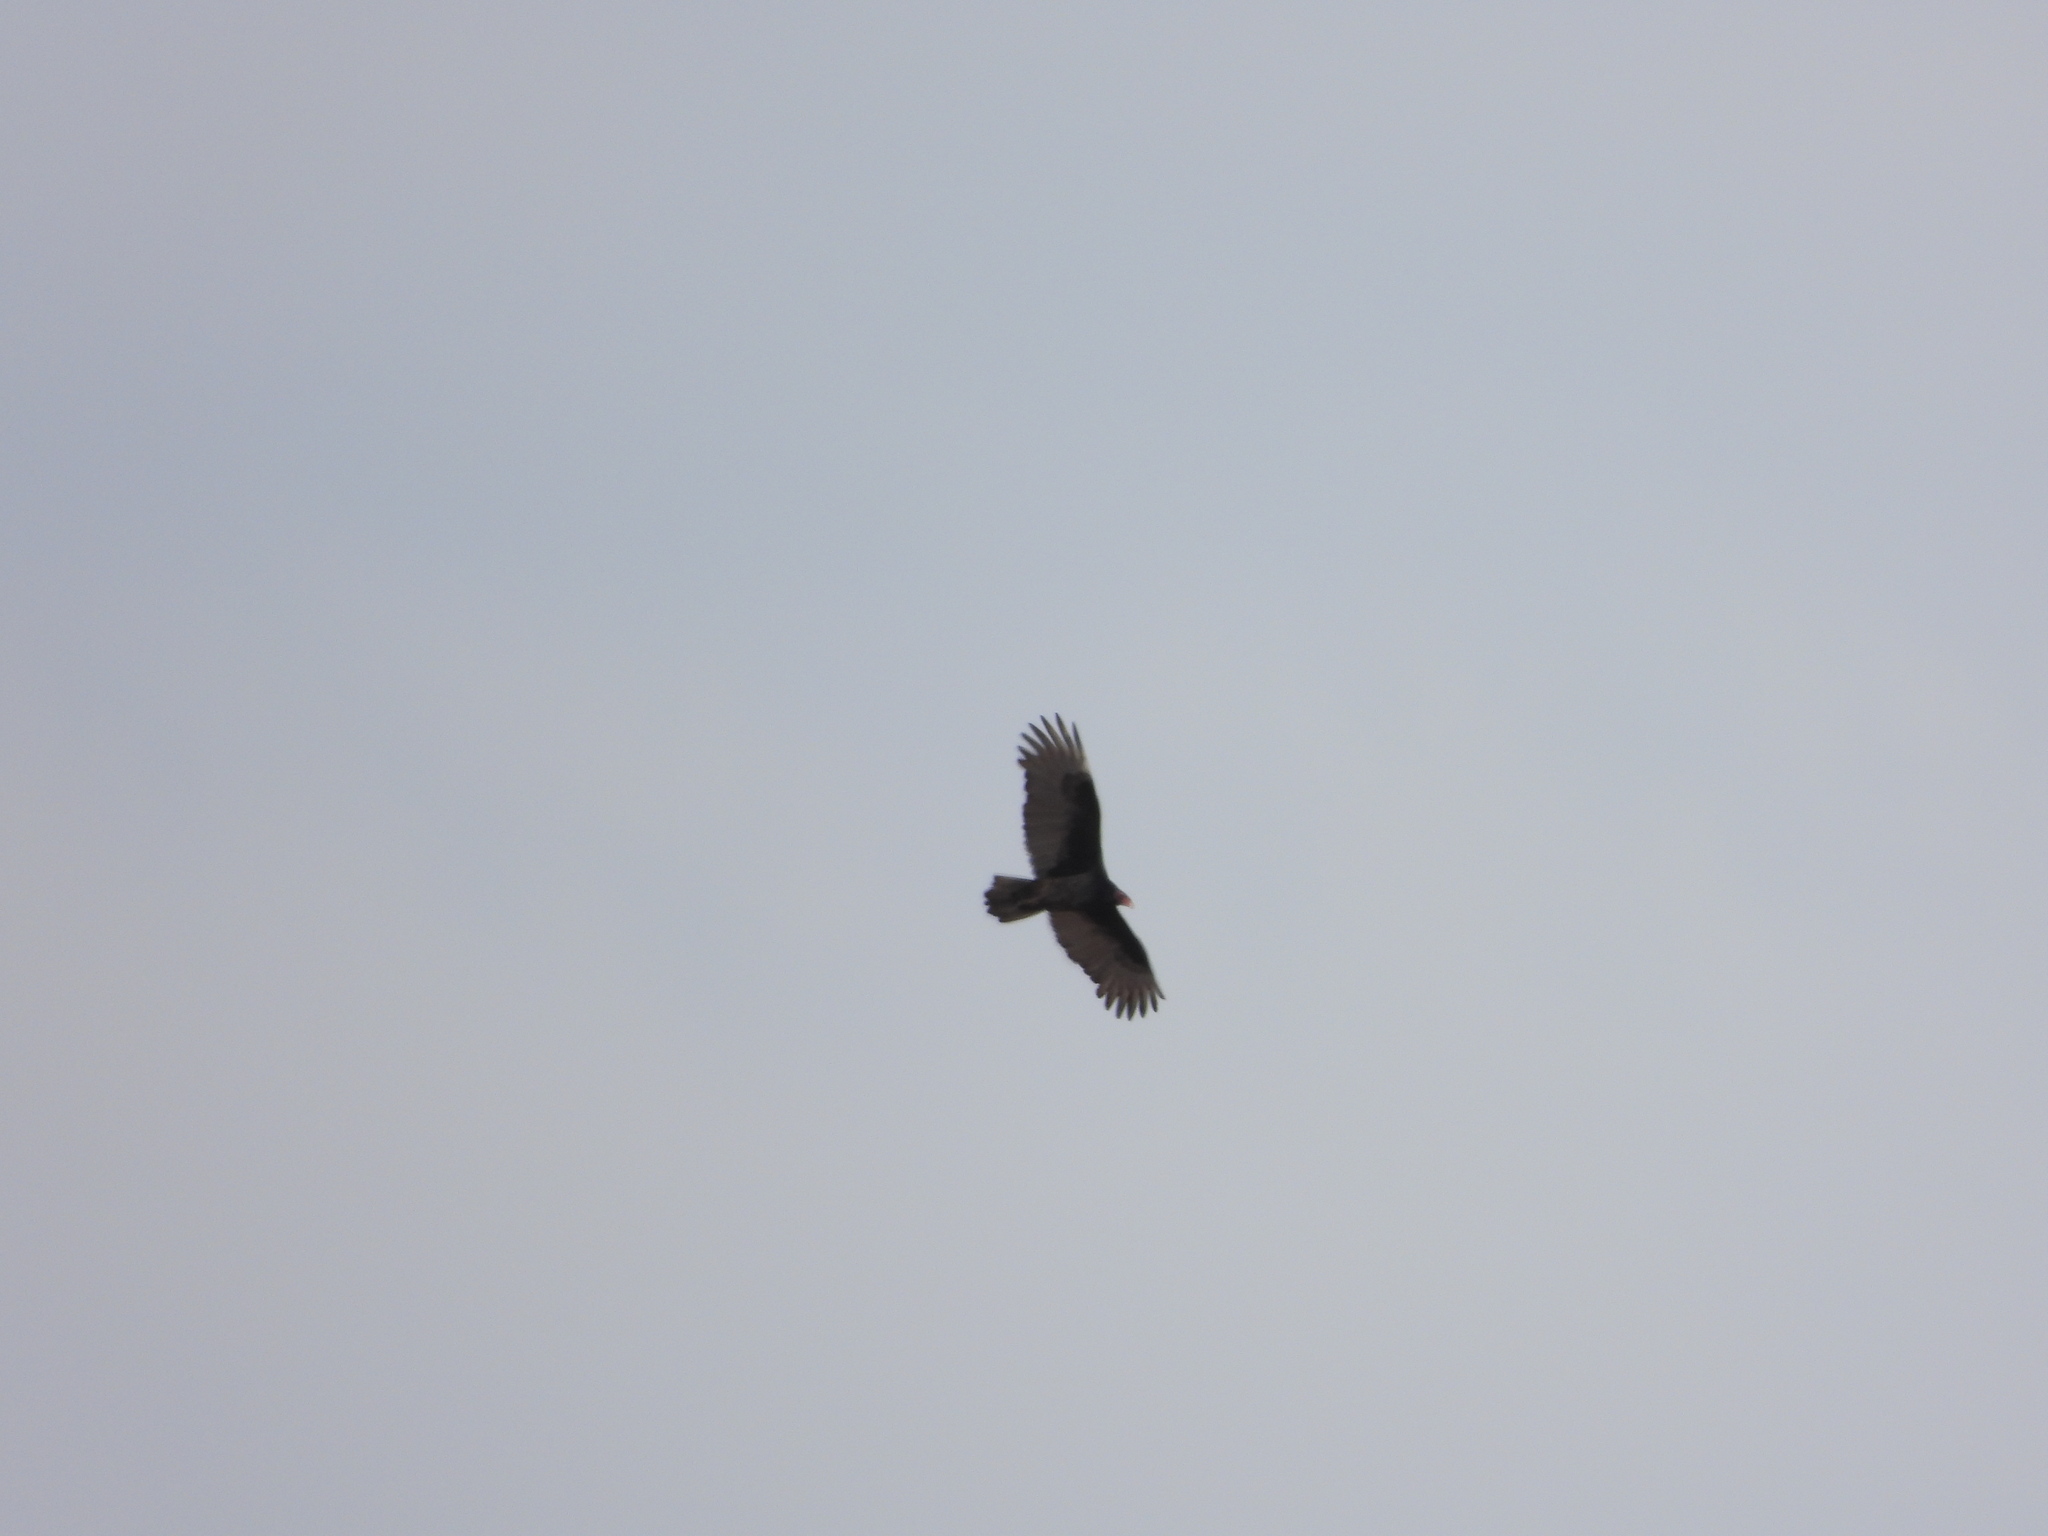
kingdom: Animalia
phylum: Chordata
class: Aves
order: Accipitriformes
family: Cathartidae
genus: Cathartes
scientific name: Cathartes aura
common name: Turkey vulture
